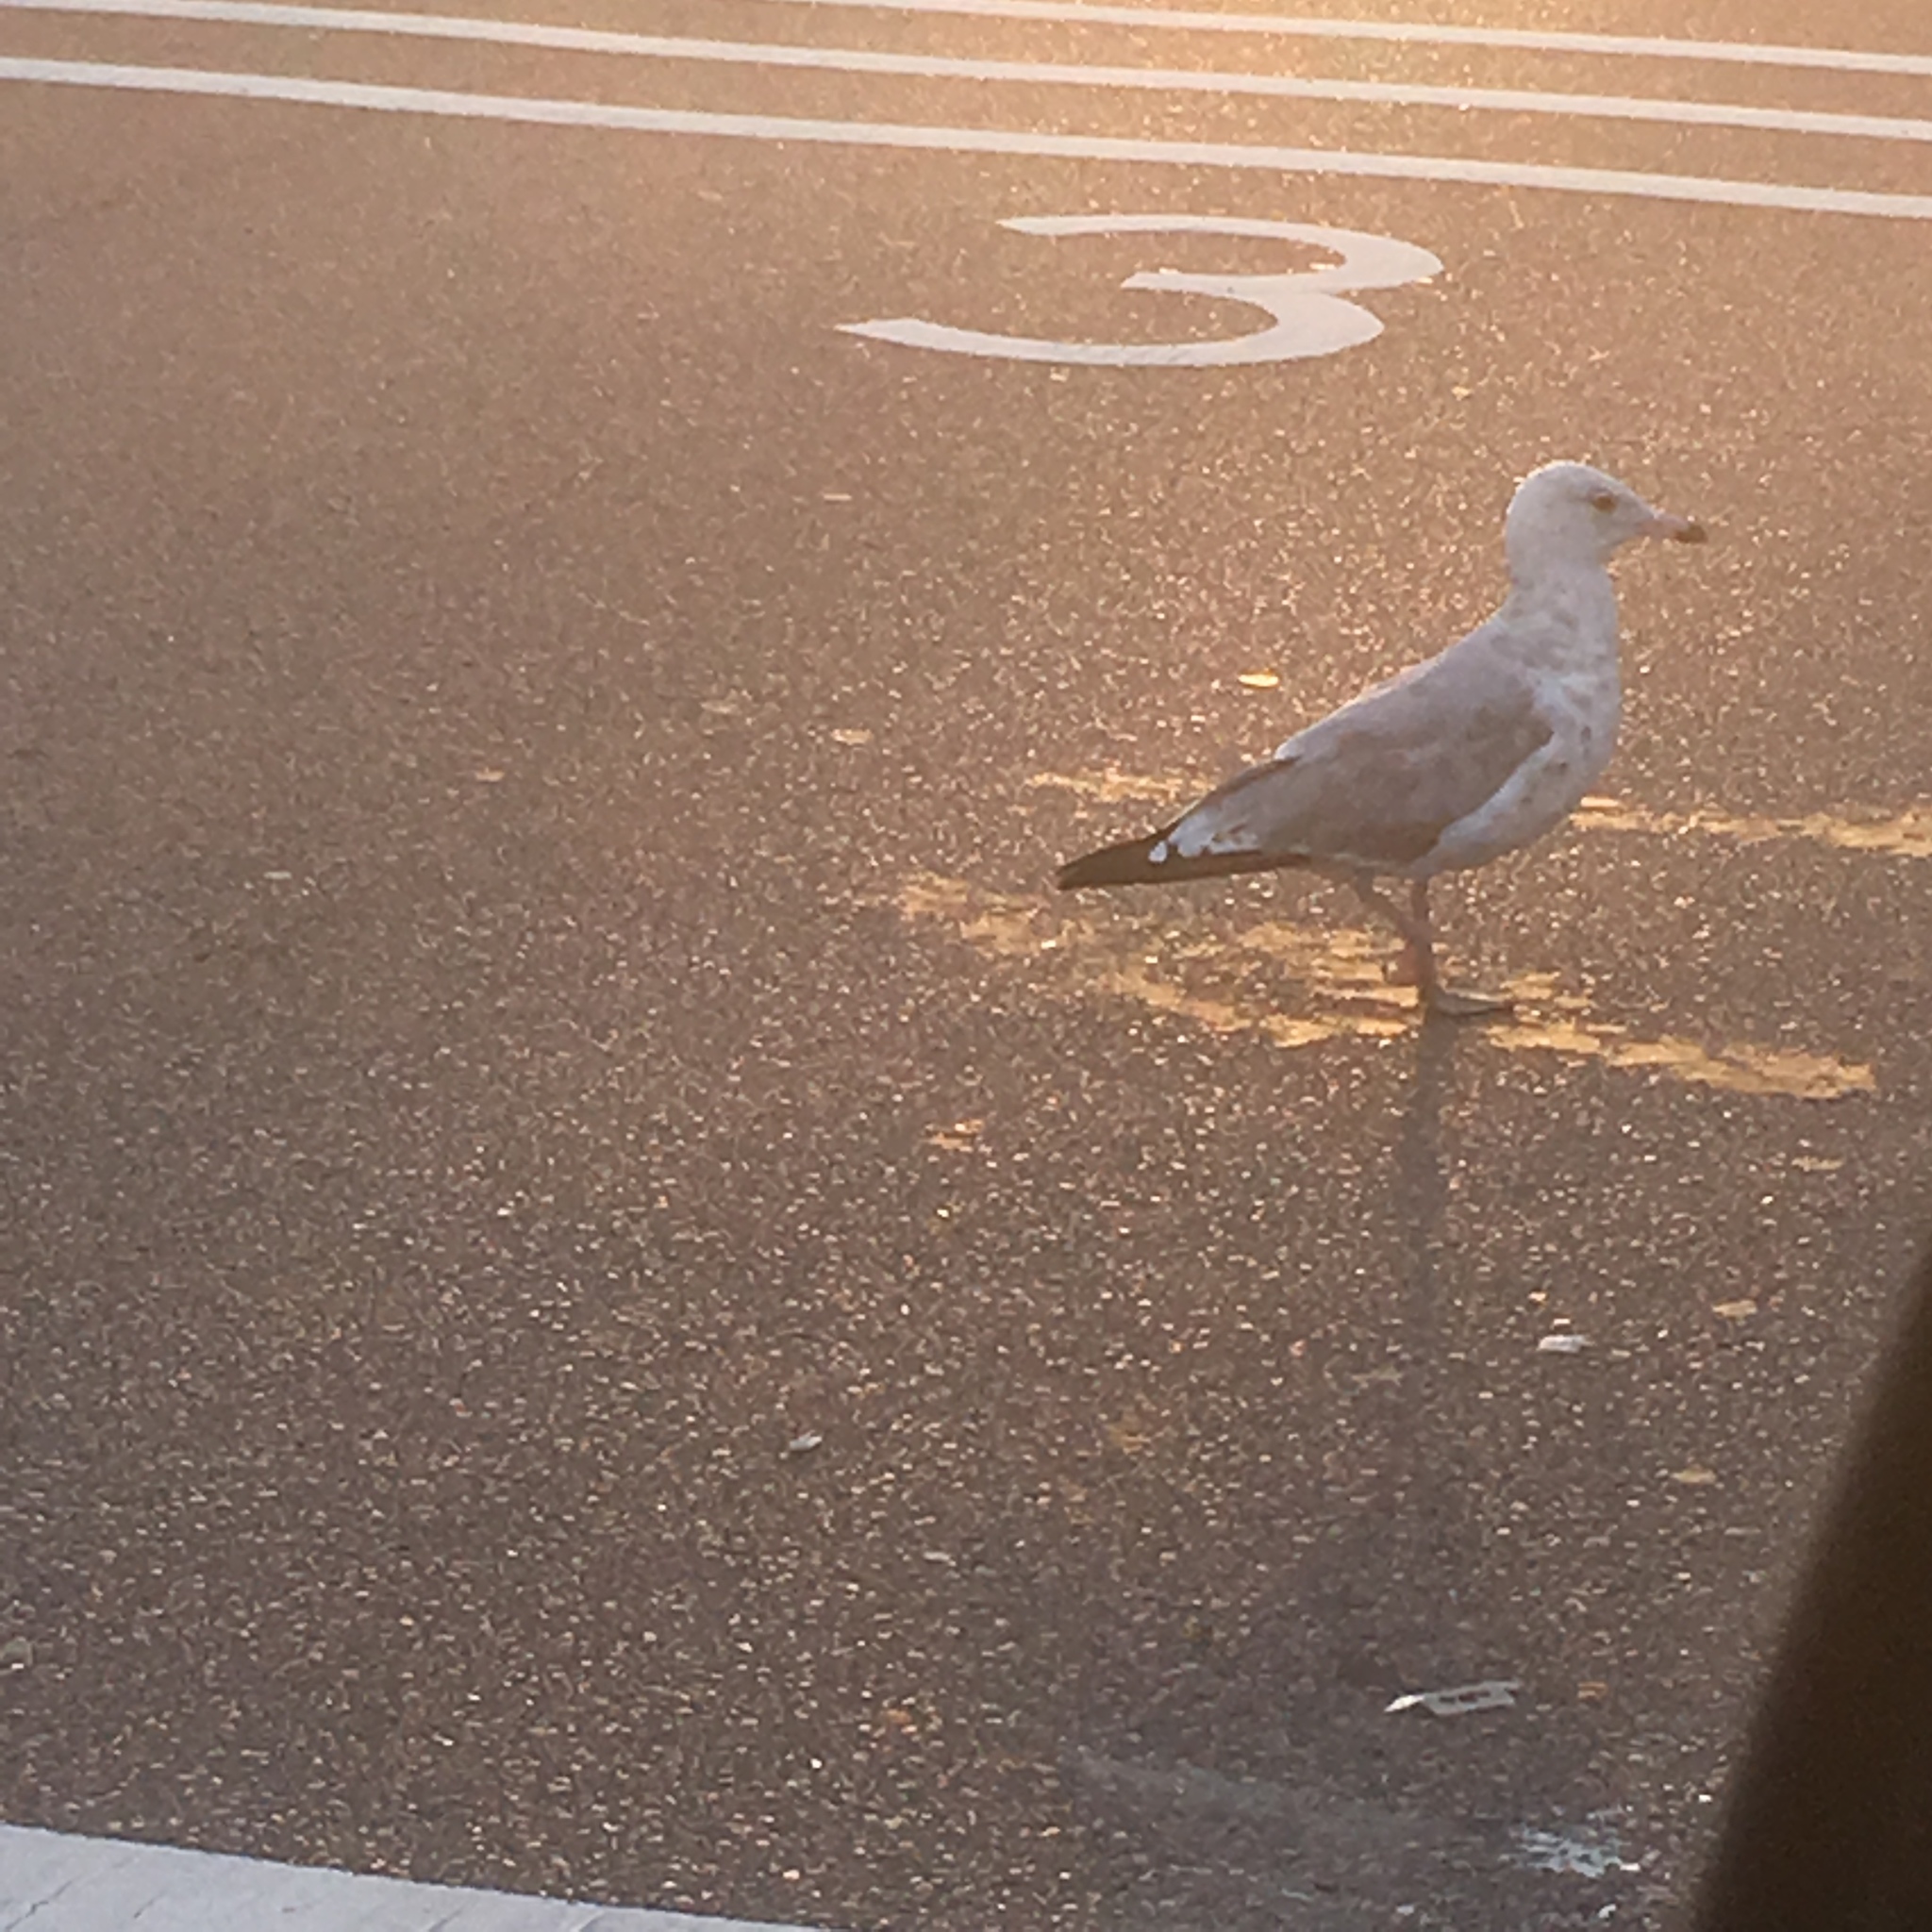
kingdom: Animalia
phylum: Chordata
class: Aves
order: Charadriiformes
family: Laridae
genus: Larus
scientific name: Larus argentatus
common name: Herring gull
